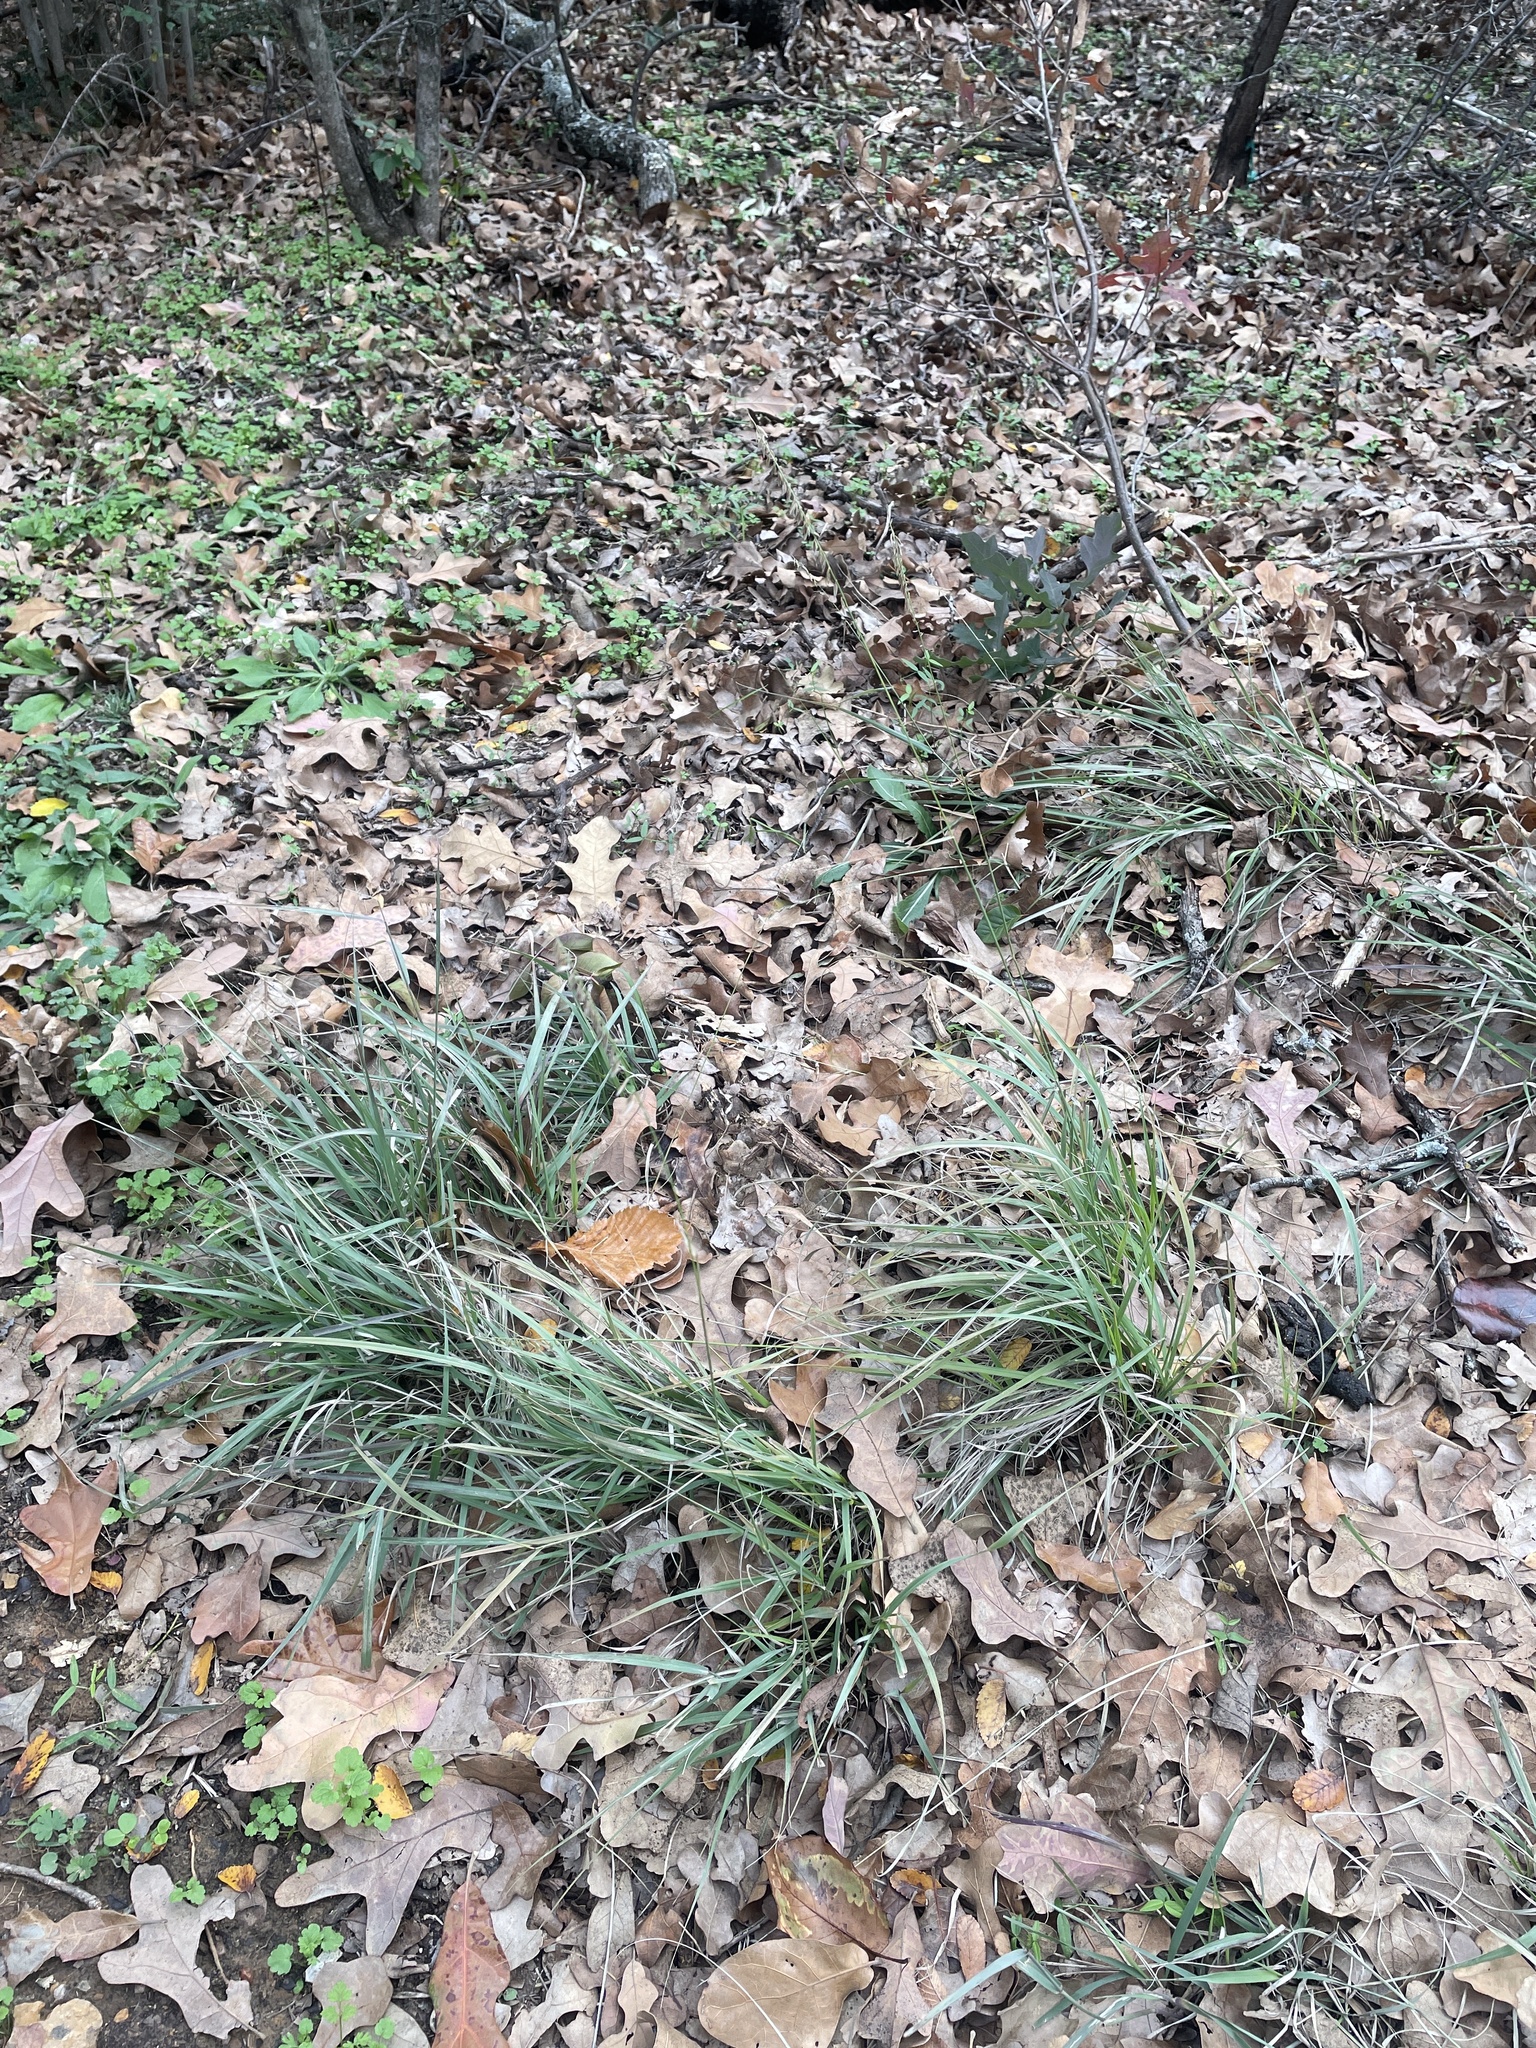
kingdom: Plantae
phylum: Tracheophyta
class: Liliopsida
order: Poales
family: Poaceae
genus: Bouteloua
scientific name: Bouteloua curtipendula
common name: Side-oats grama
